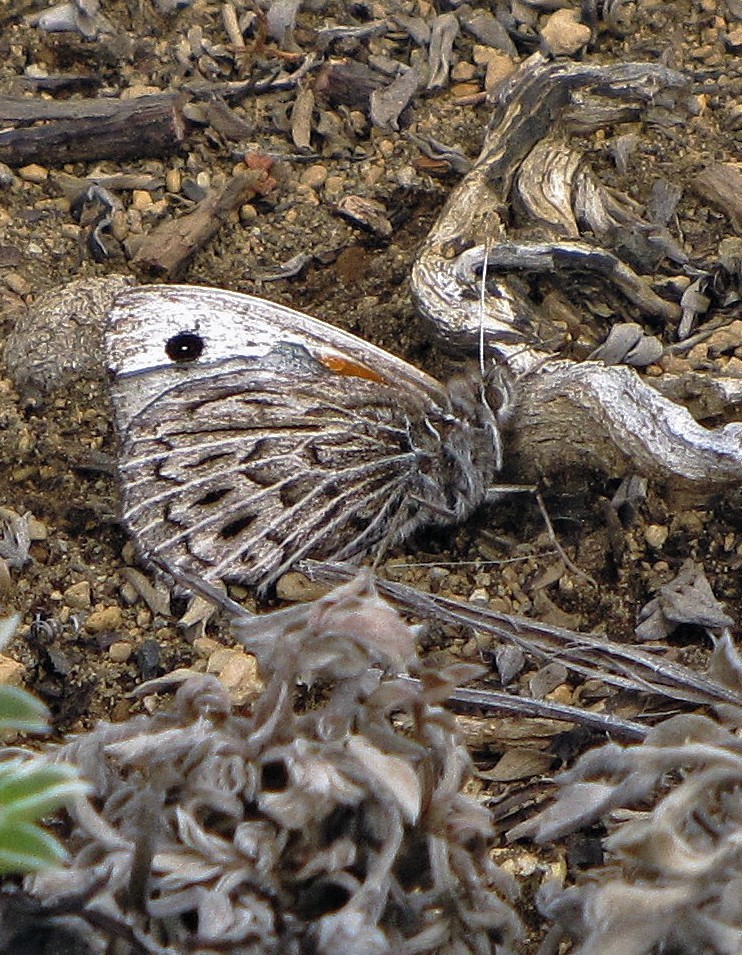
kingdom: Animalia
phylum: Arthropoda
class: Insecta
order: Lepidoptera
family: Nymphalidae
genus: Argyrophorus
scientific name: Argyrophorus argenteus
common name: Silver satyr
